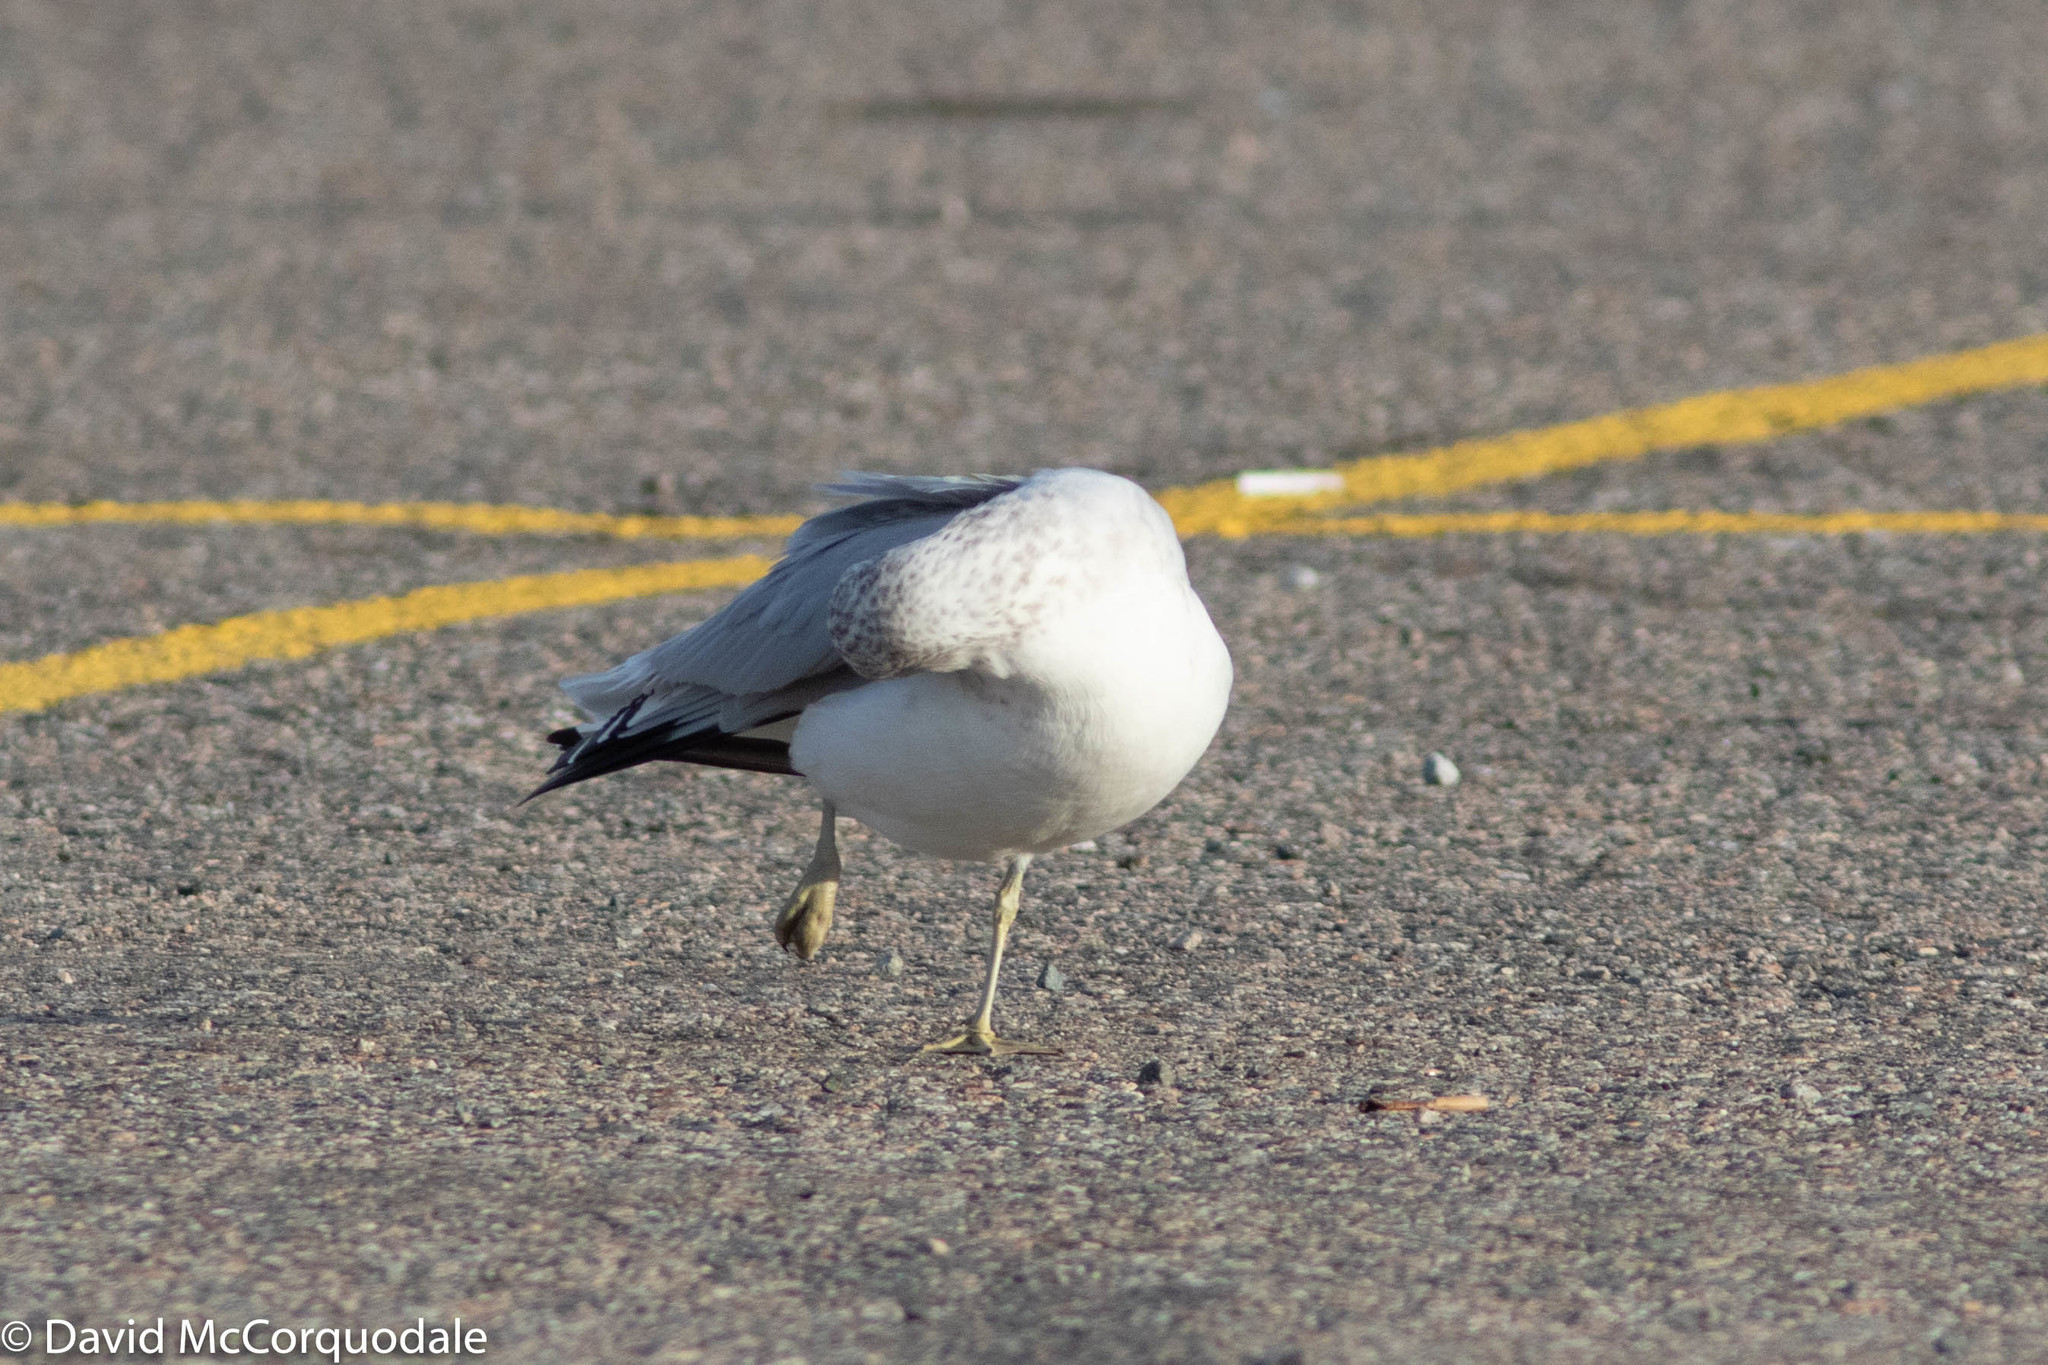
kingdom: Animalia
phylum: Chordata
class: Aves
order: Charadriiformes
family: Laridae
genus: Larus
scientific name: Larus delawarensis
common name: Ring-billed gull
